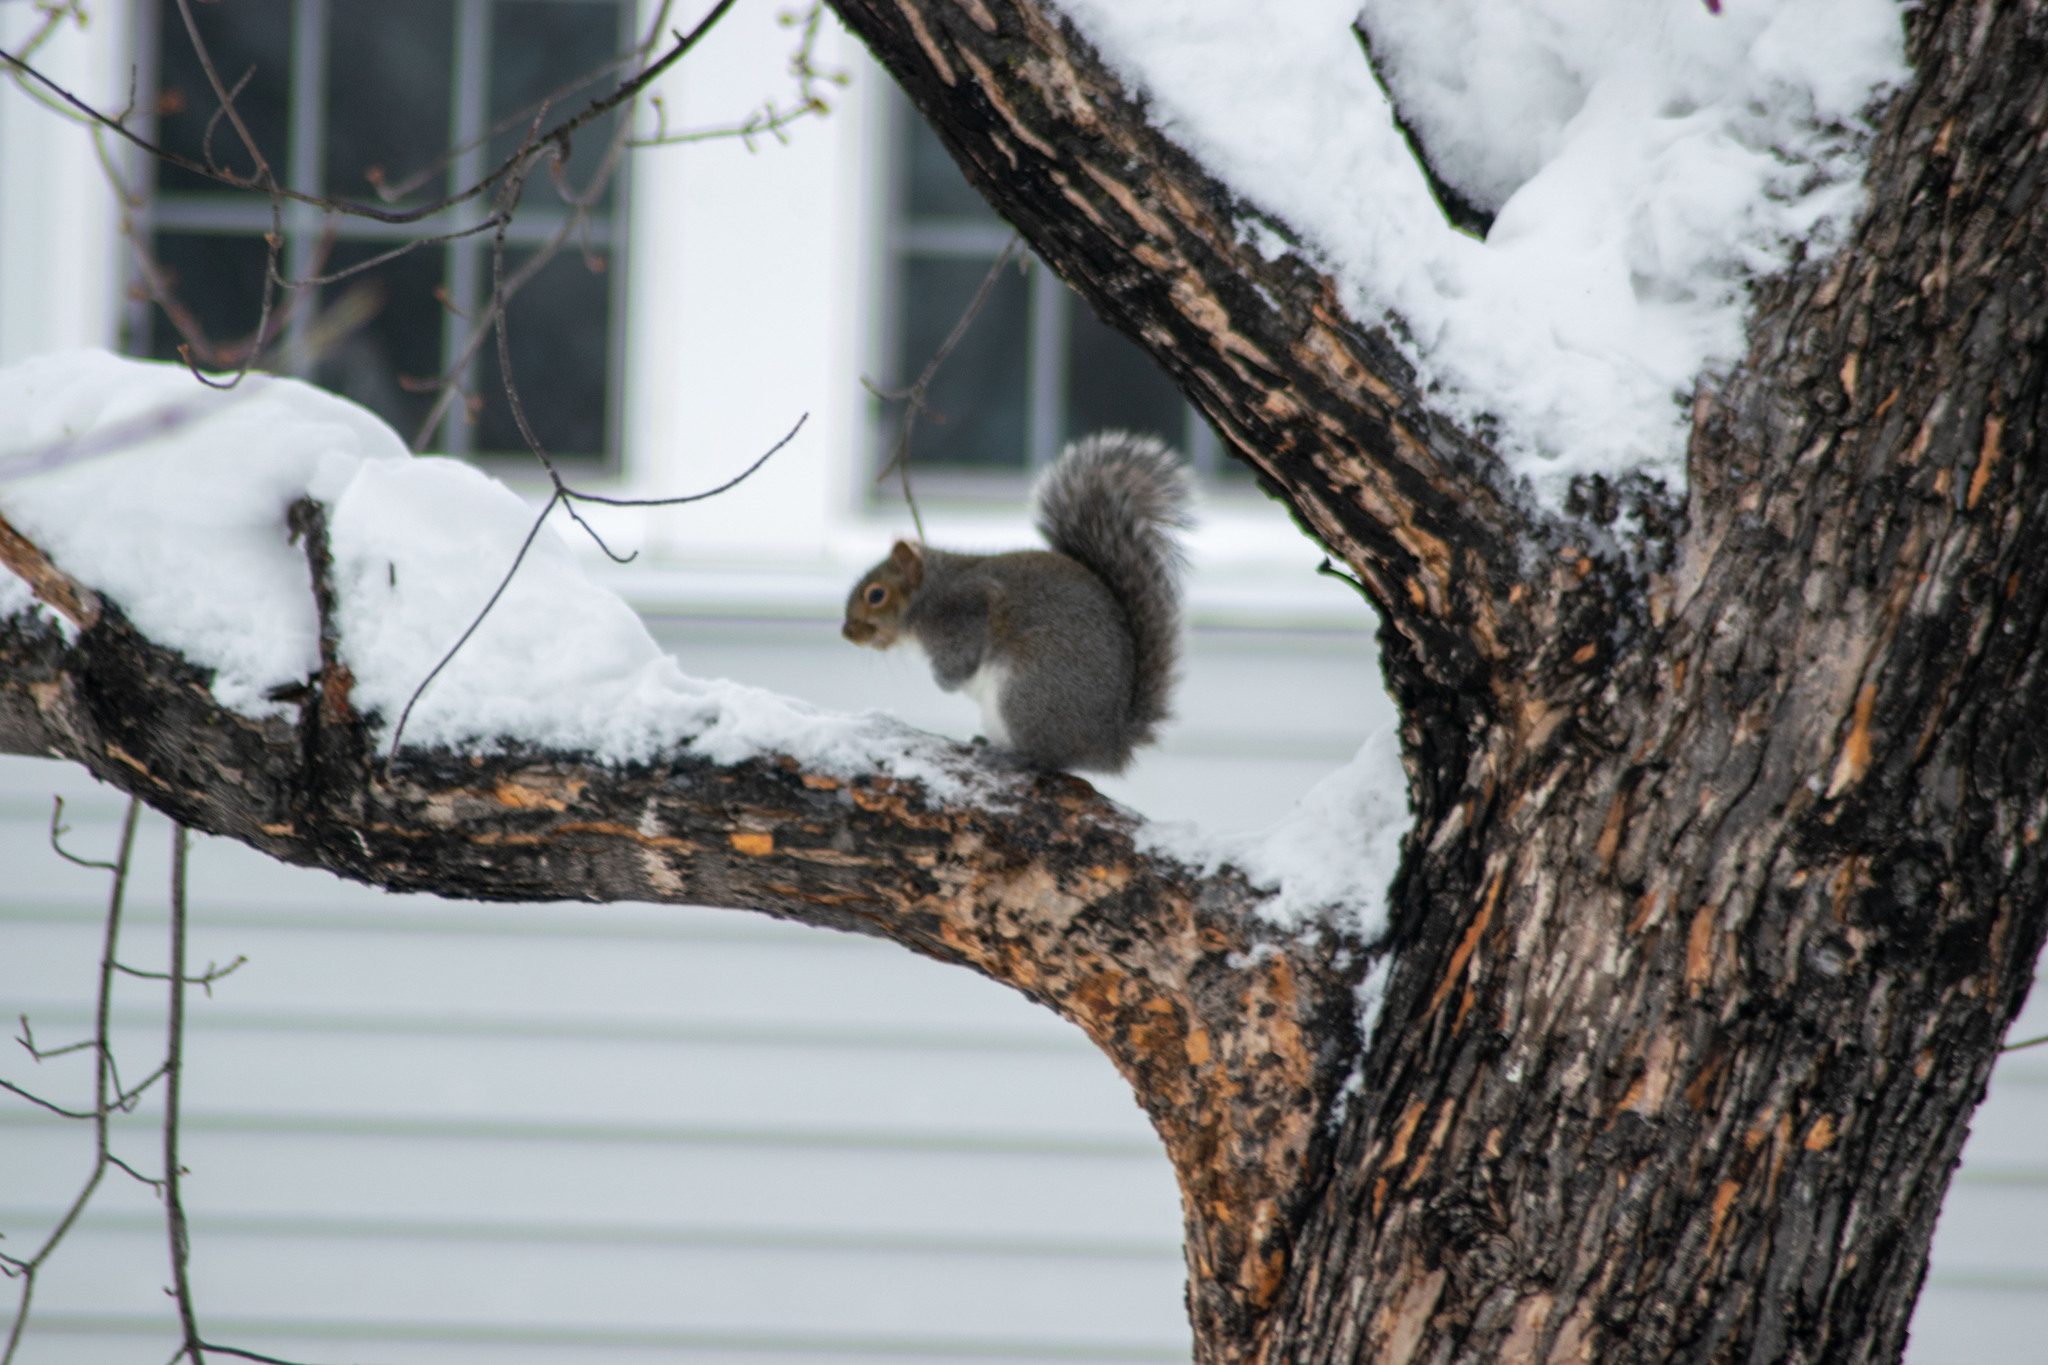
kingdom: Animalia
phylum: Chordata
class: Mammalia
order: Rodentia
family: Sciuridae
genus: Sciurus
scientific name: Sciurus carolinensis
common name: Eastern gray squirrel
